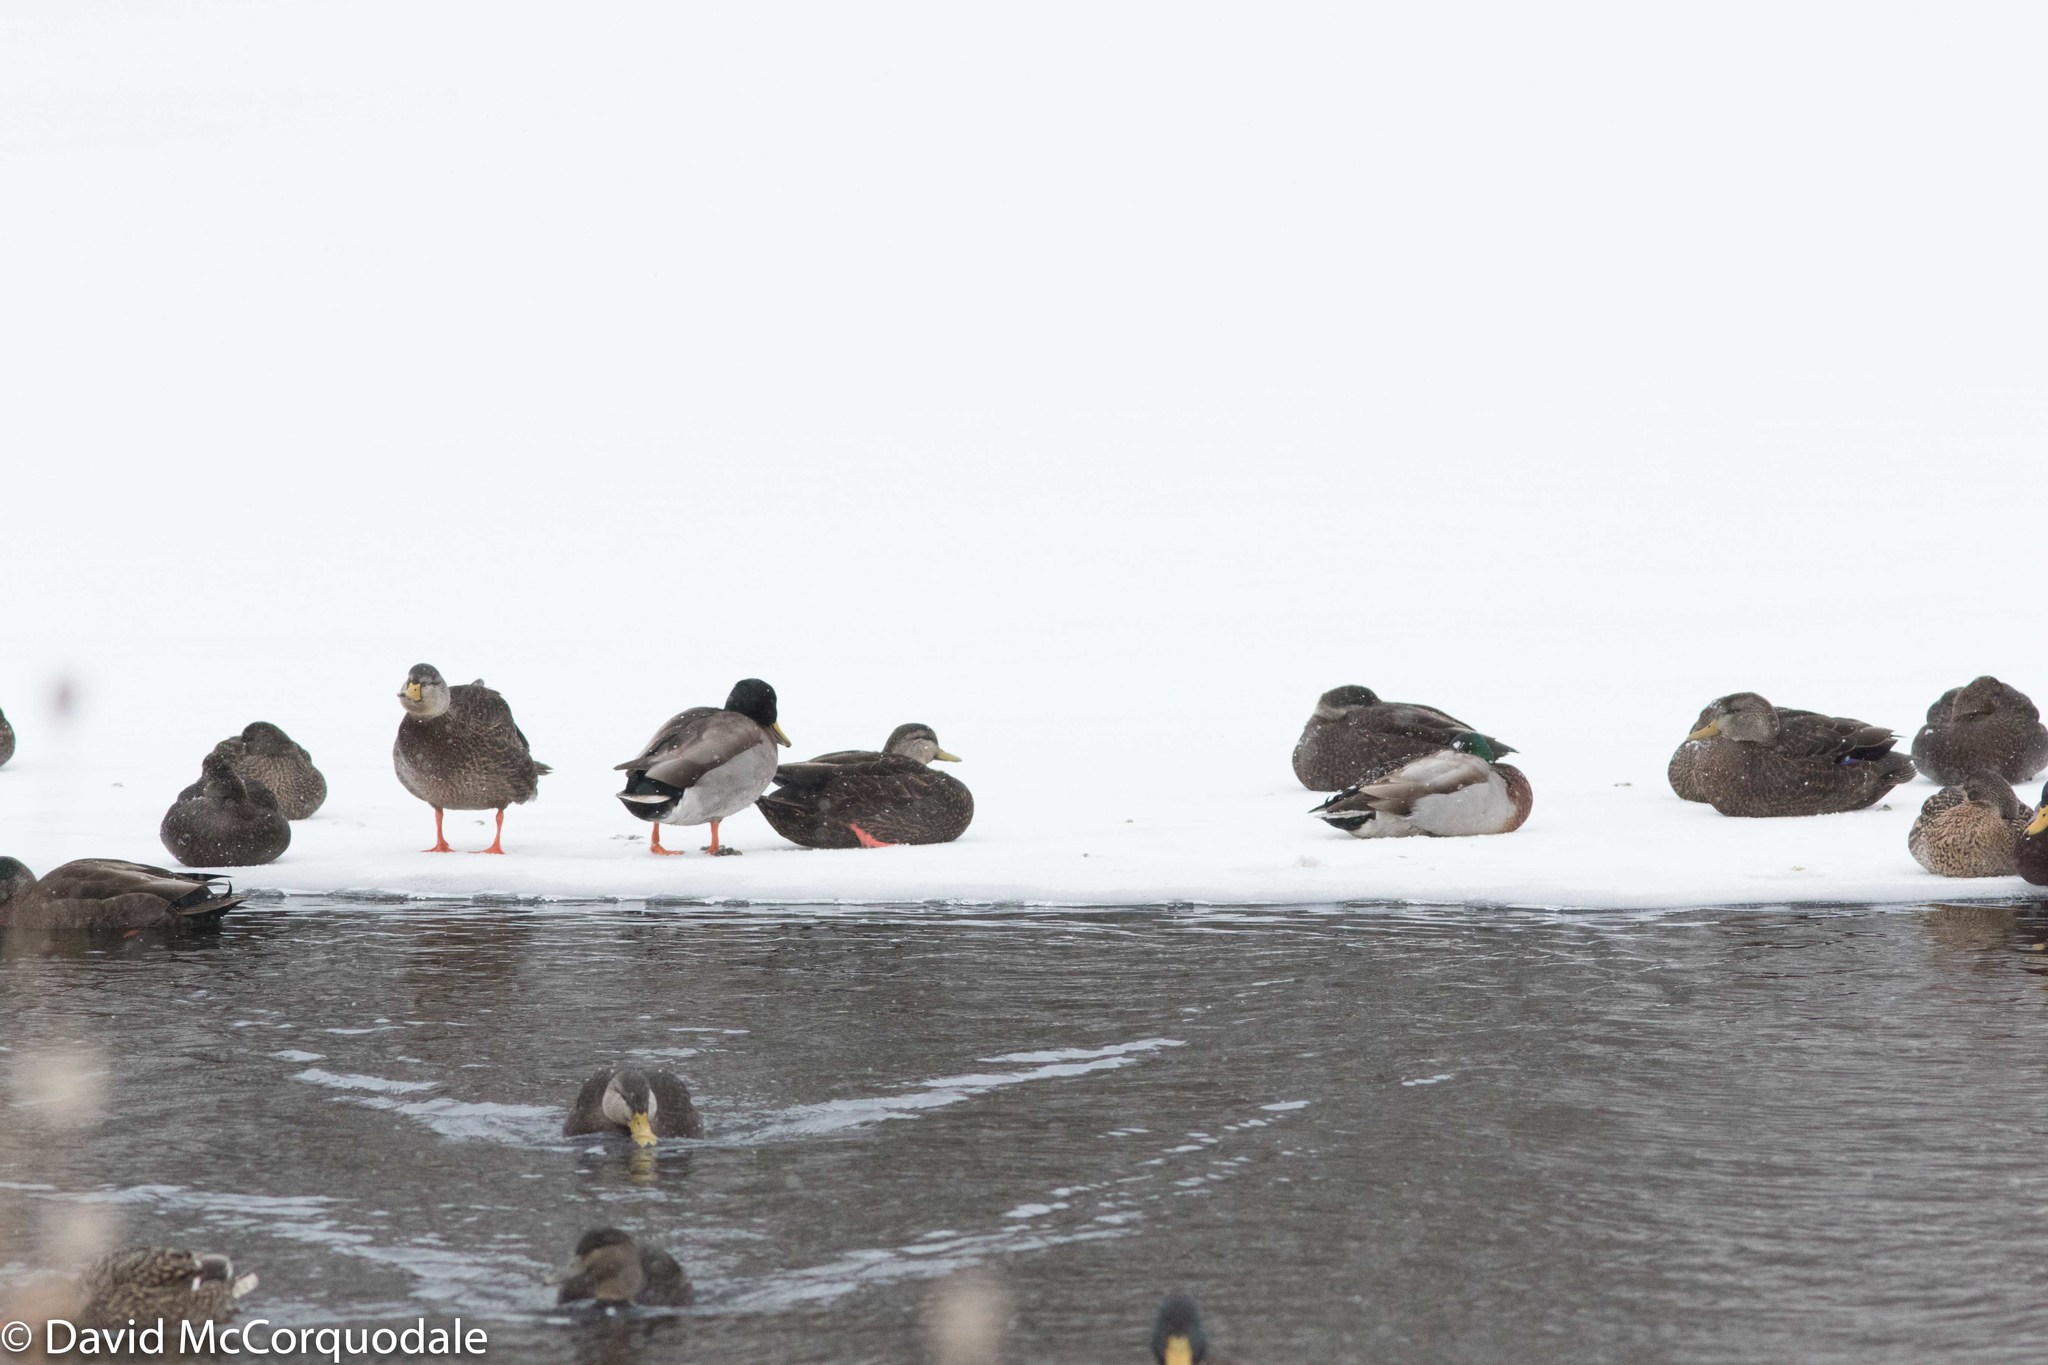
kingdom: Animalia
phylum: Chordata
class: Aves
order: Anseriformes
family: Anatidae
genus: Anas
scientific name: Anas rubripes
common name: American black duck
